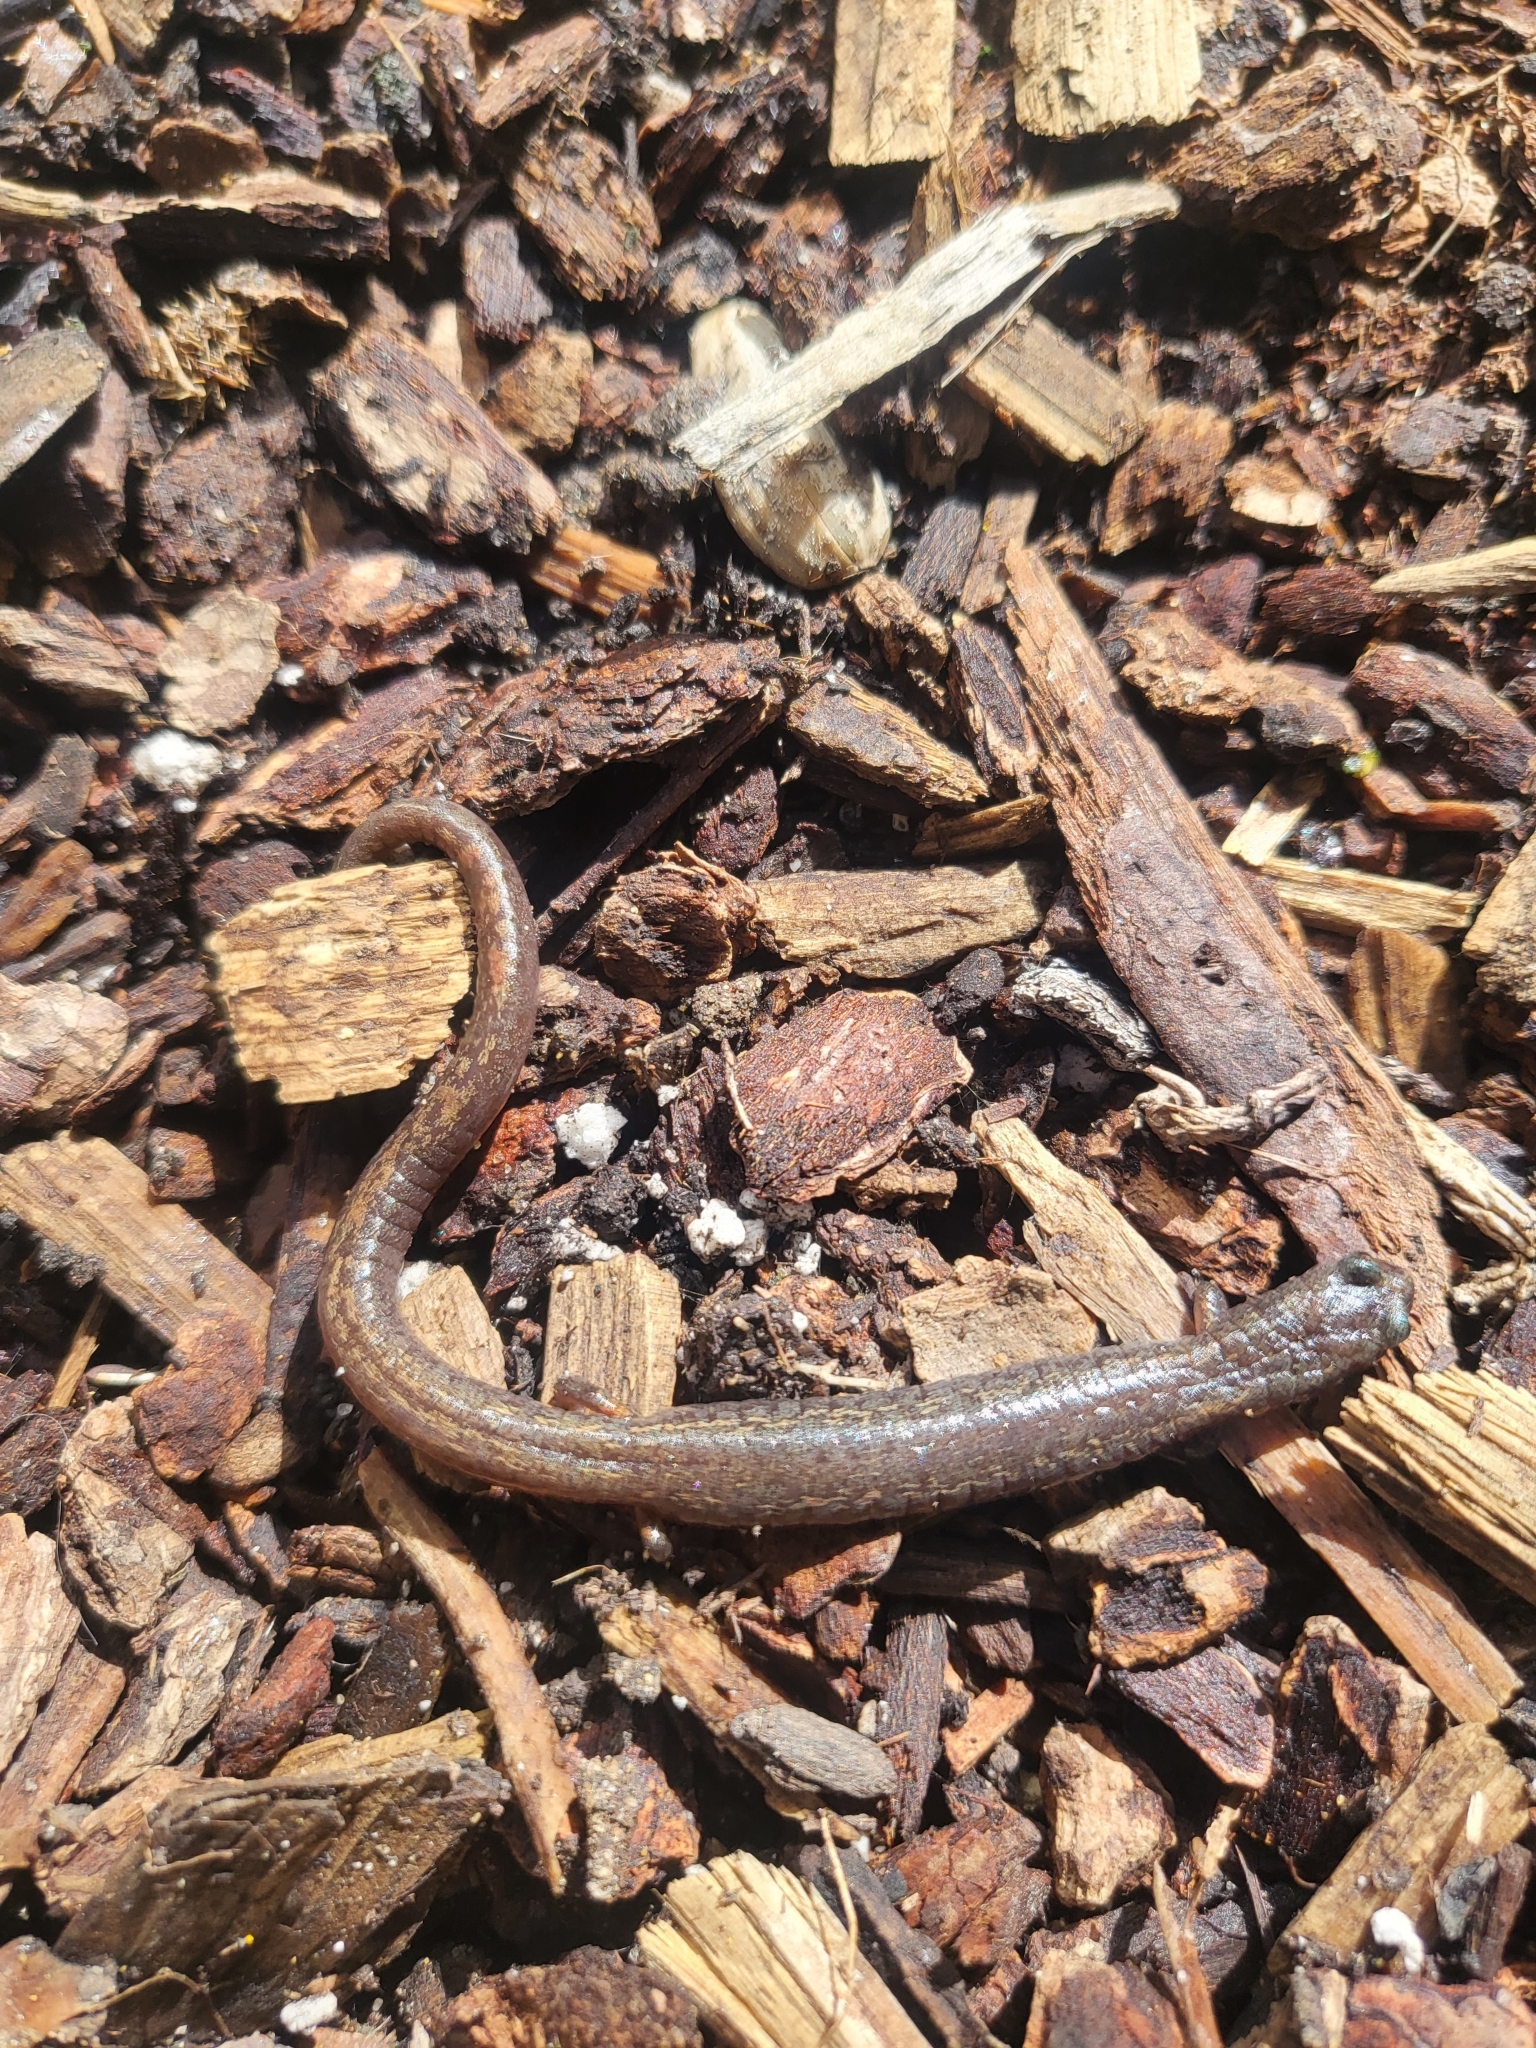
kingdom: Animalia
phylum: Chordata
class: Amphibia
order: Caudata
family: Plethodontidae
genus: Batrachoseps
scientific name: Batrachoseps attenuatus
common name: California slender salamander
